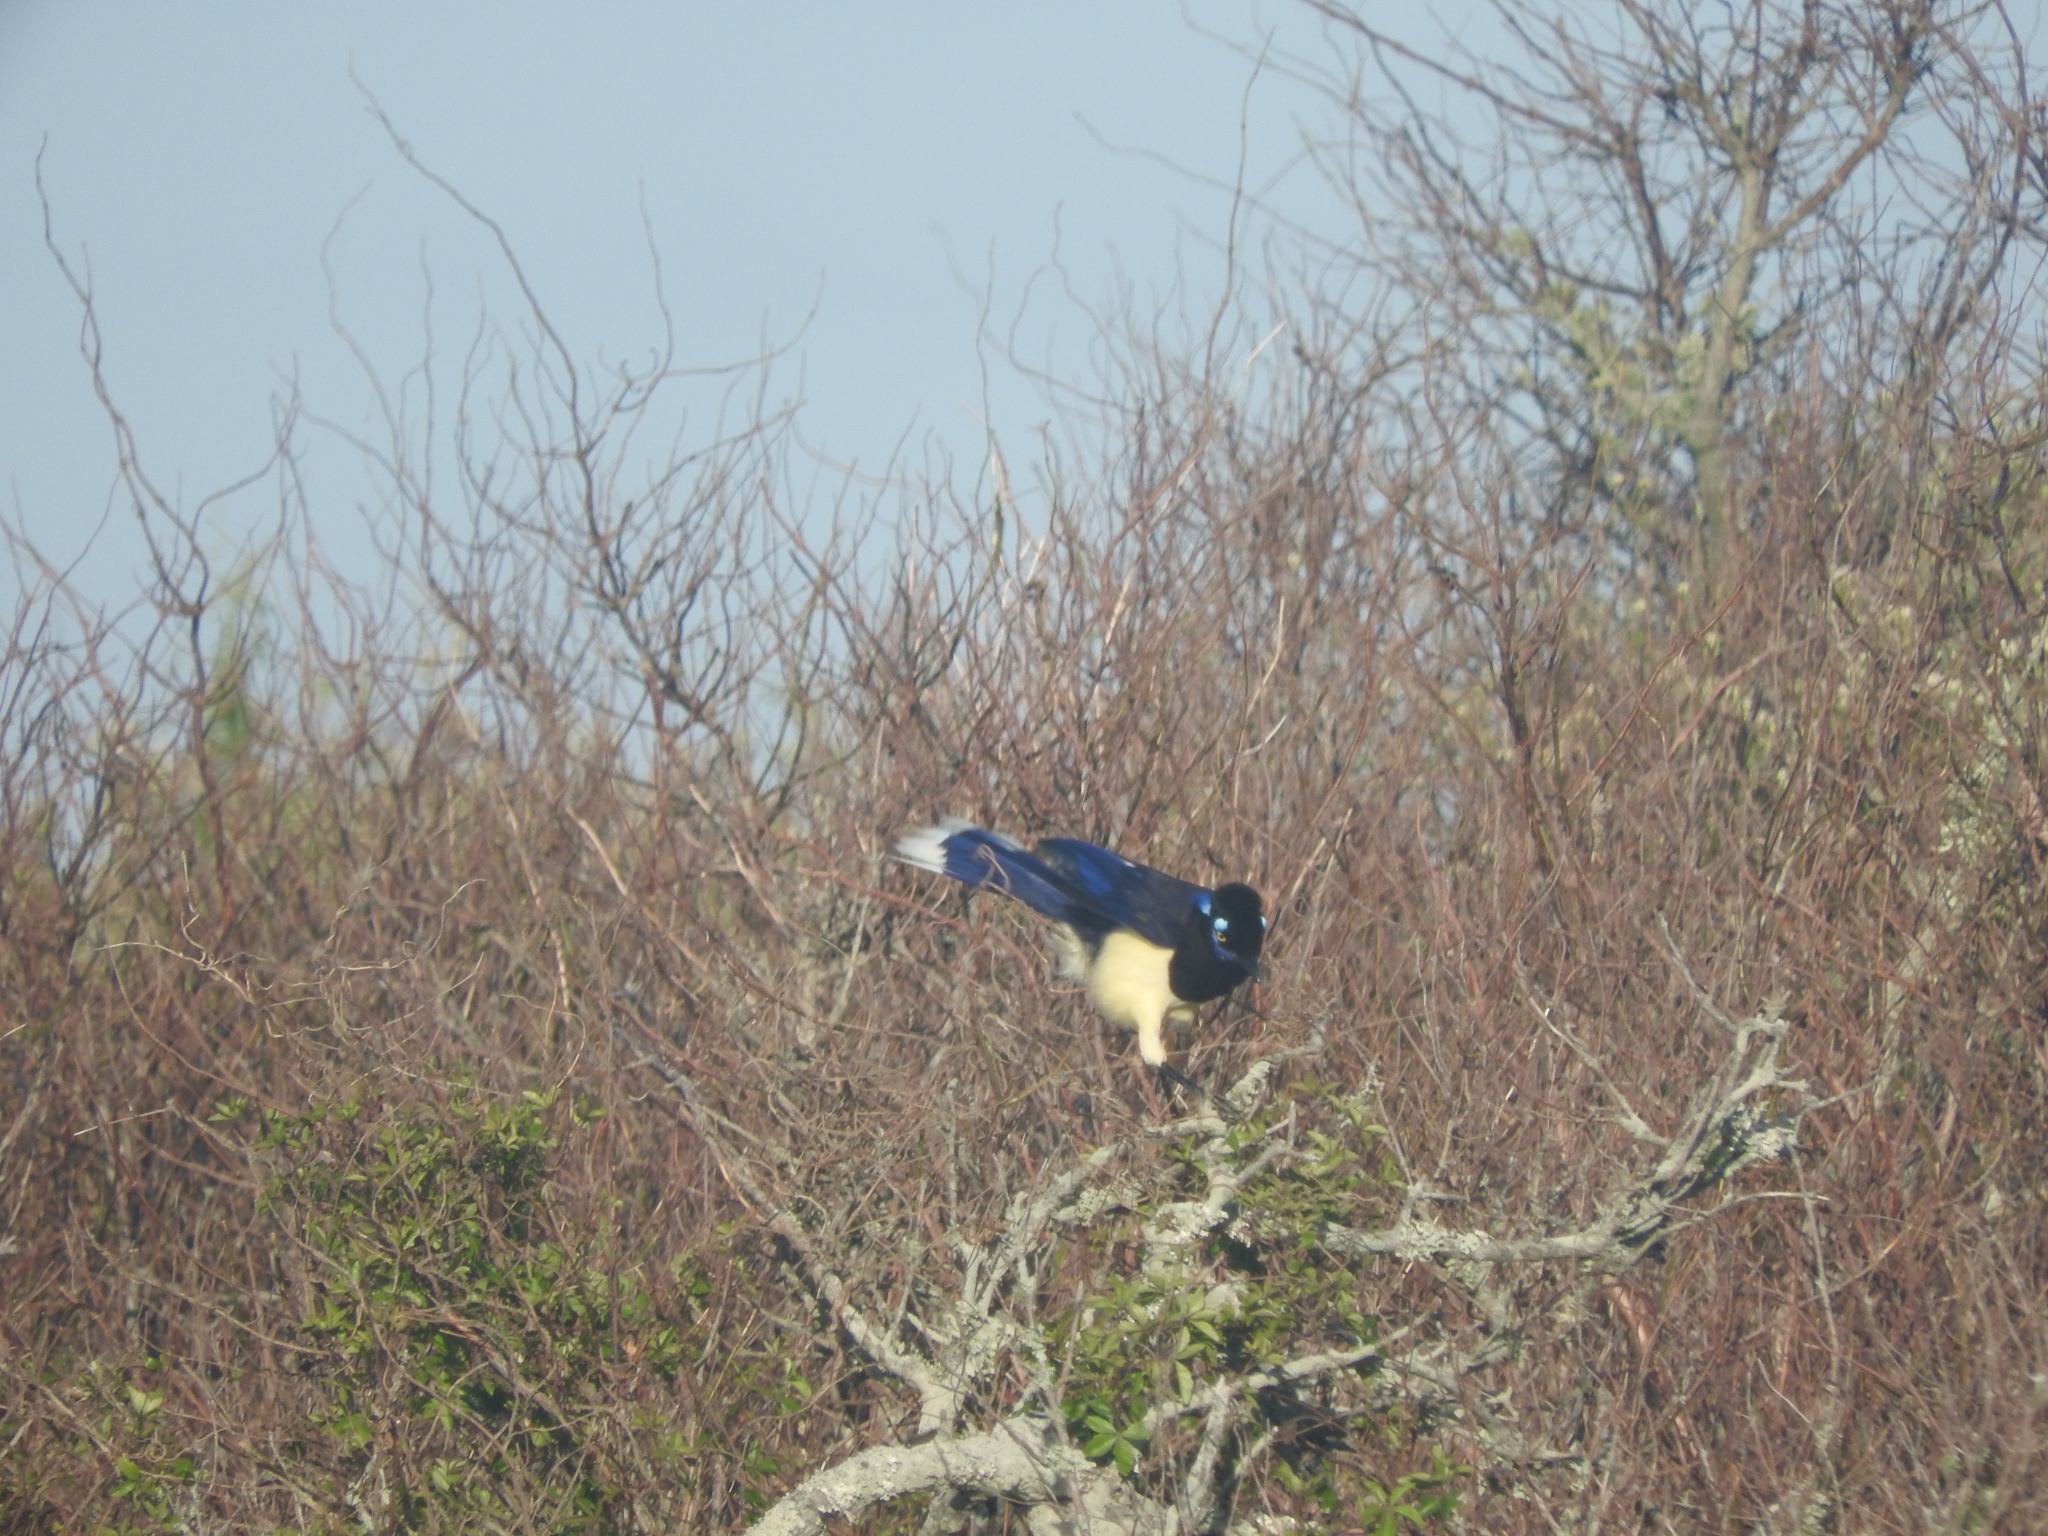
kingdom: Animalia
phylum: Chordata
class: Aves
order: Passeriformes
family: Corvidae
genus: Cyanocorax
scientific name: Cyanocorax chrysops
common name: Plush-crested jay
